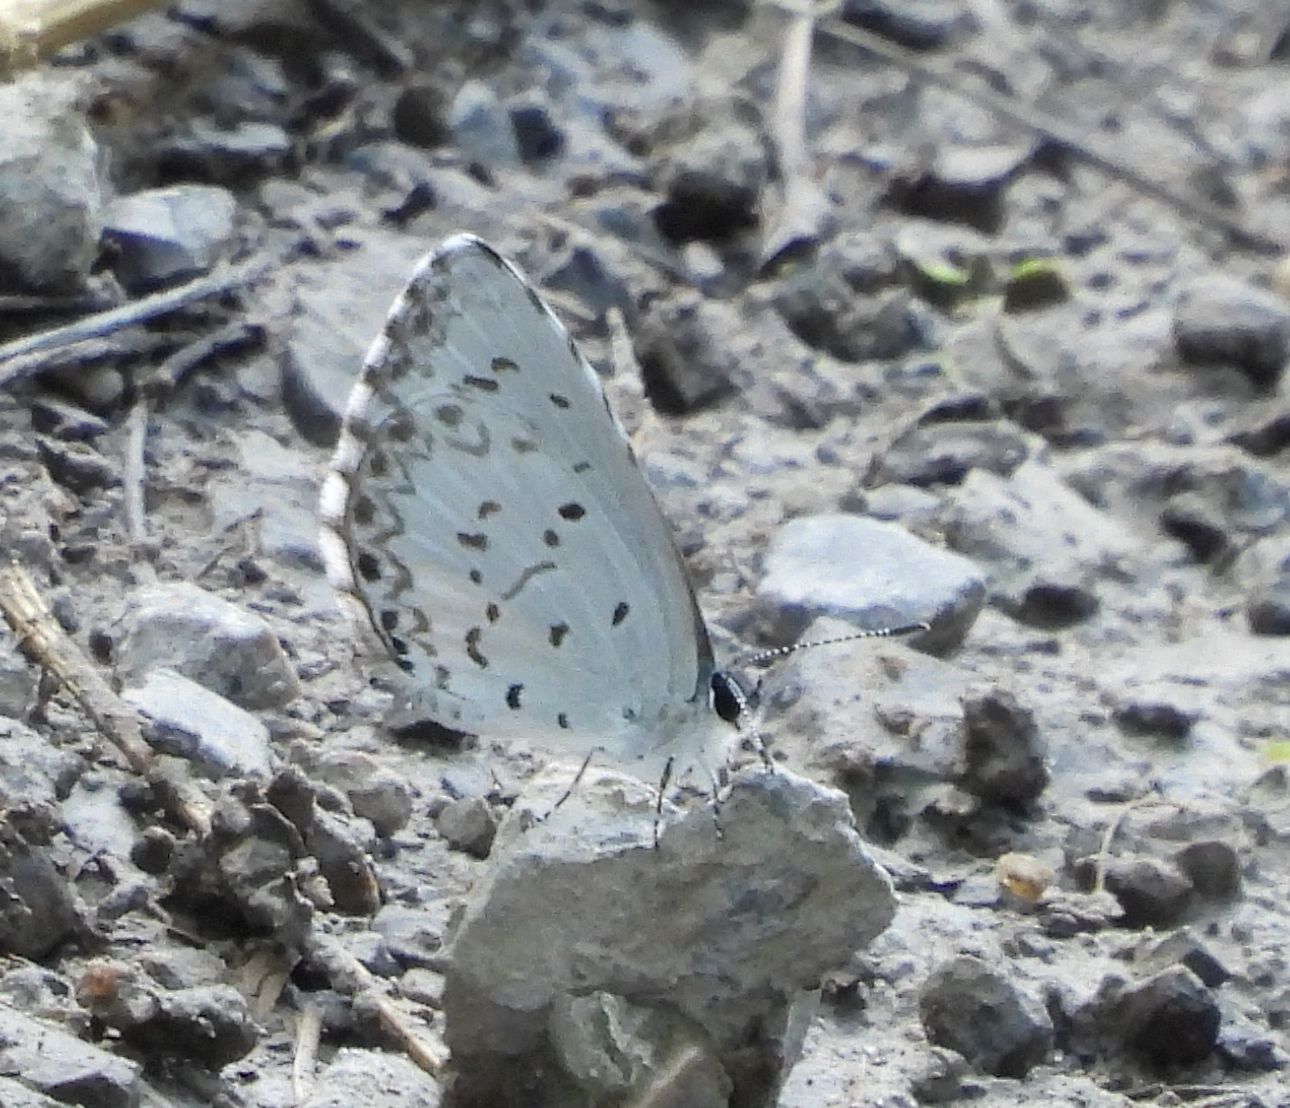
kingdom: Animalia
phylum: Arthropoda
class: Insecta
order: Lepidoptera
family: Lycaenidae
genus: Celastrina
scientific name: Celastrina lucia
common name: Lucia azure
